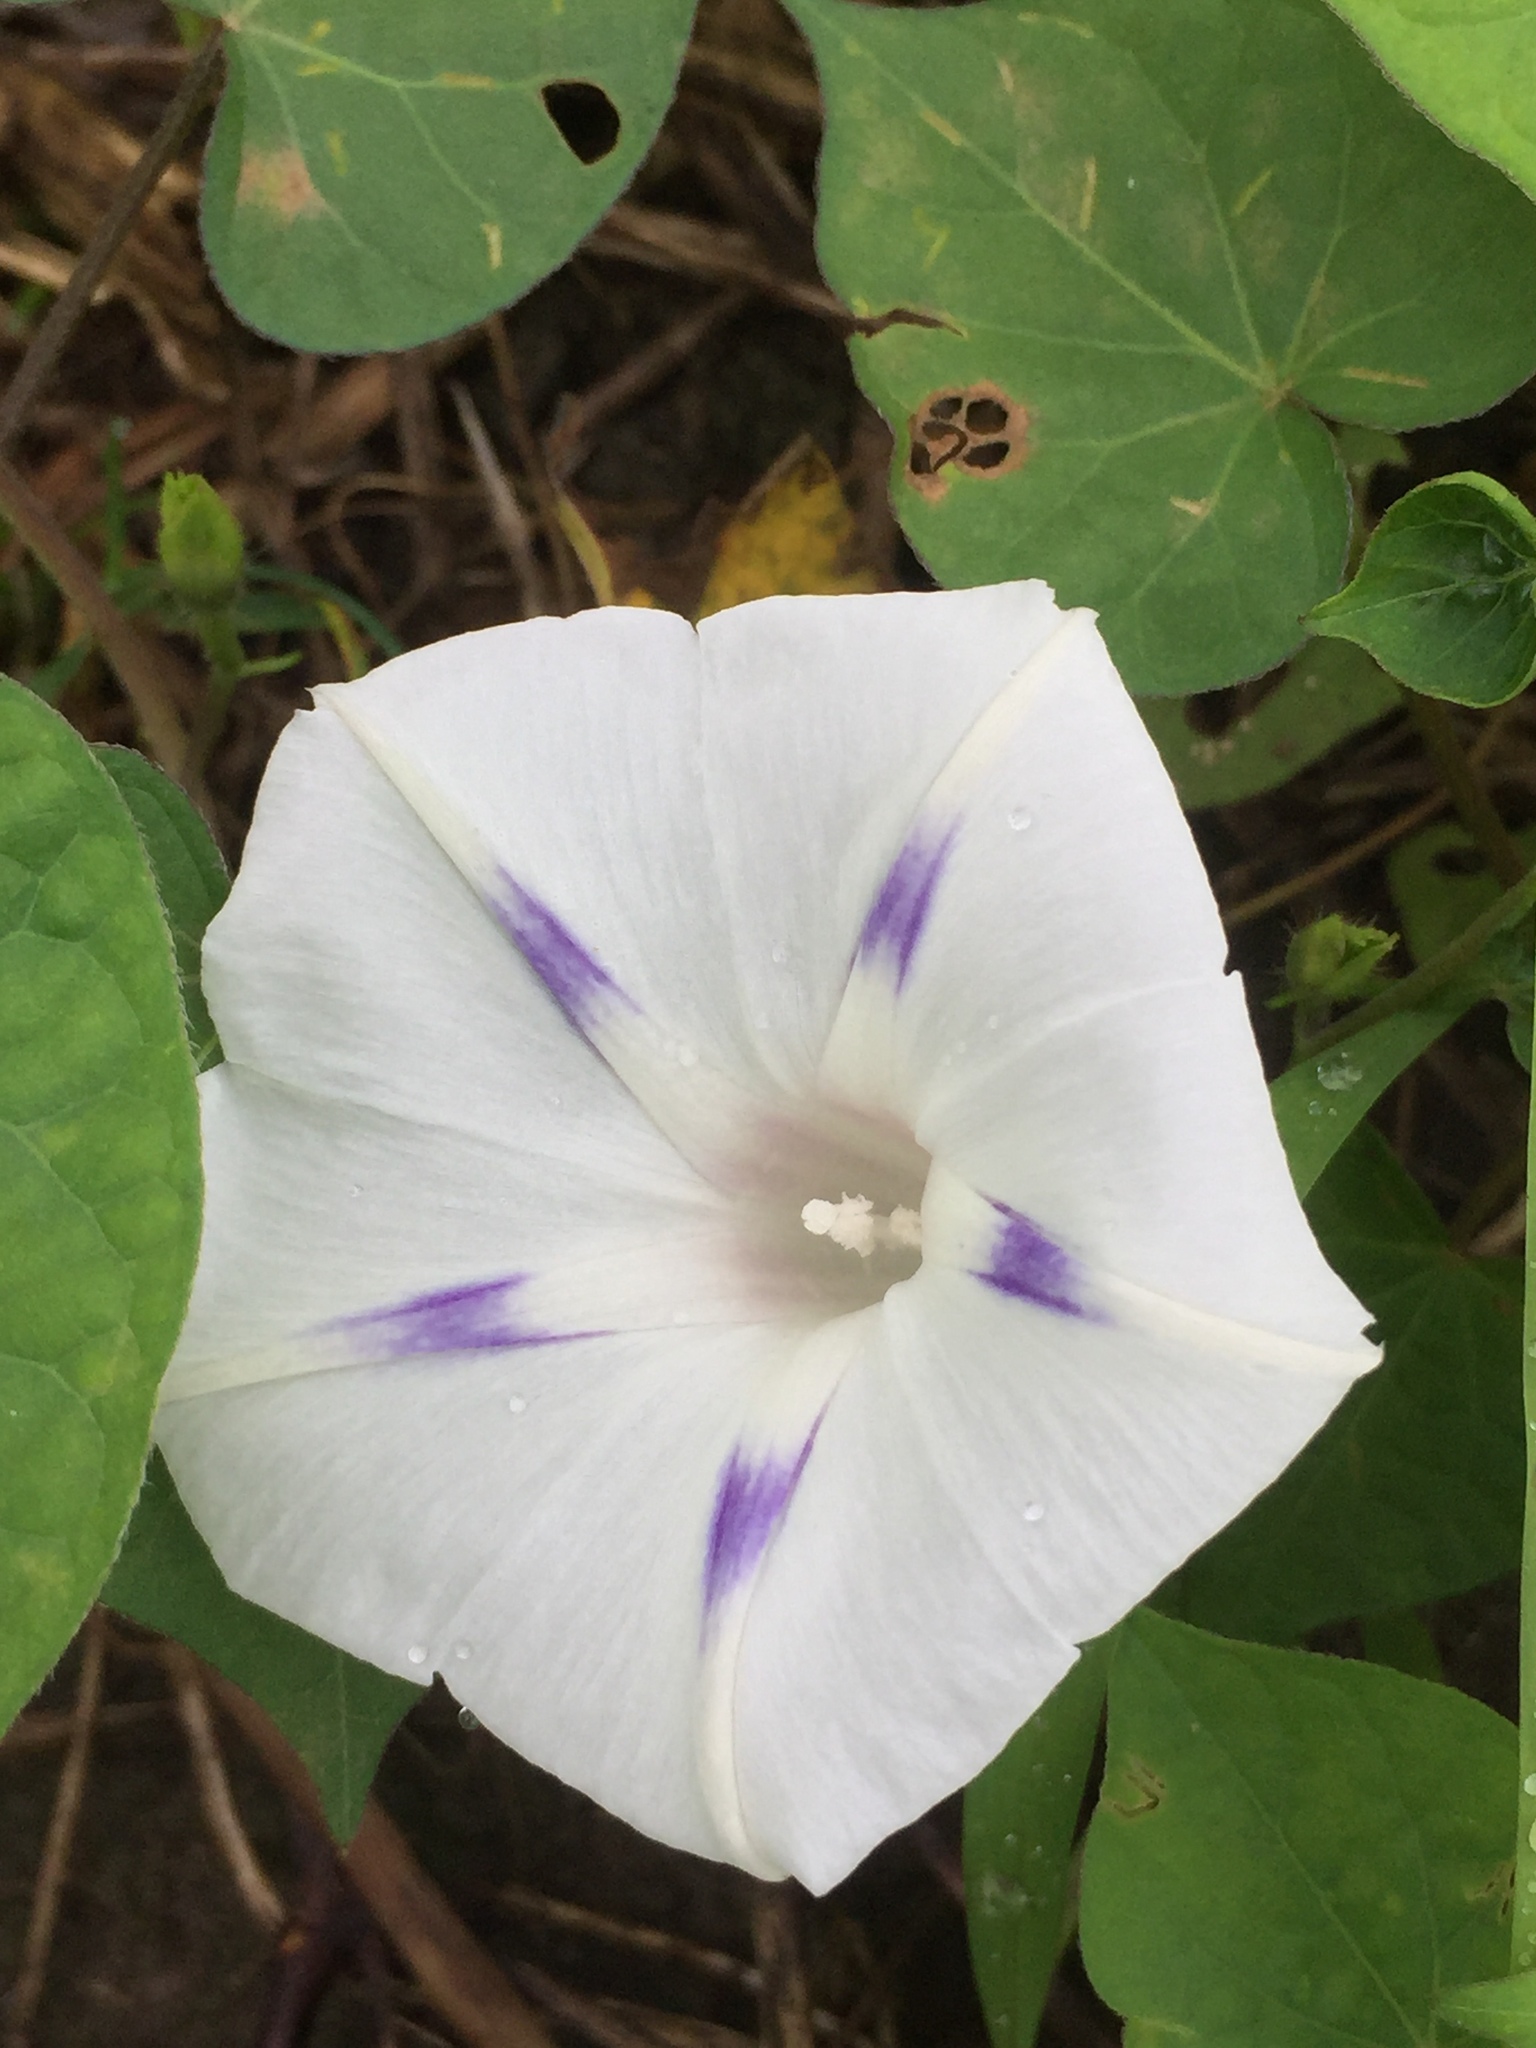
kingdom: Plantae
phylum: Tracheophyta
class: Magnoliopsida
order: Solanales
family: Convolvulaceae
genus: Ipomoea
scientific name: Ipomoea purpurea
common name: Common morning-glory
